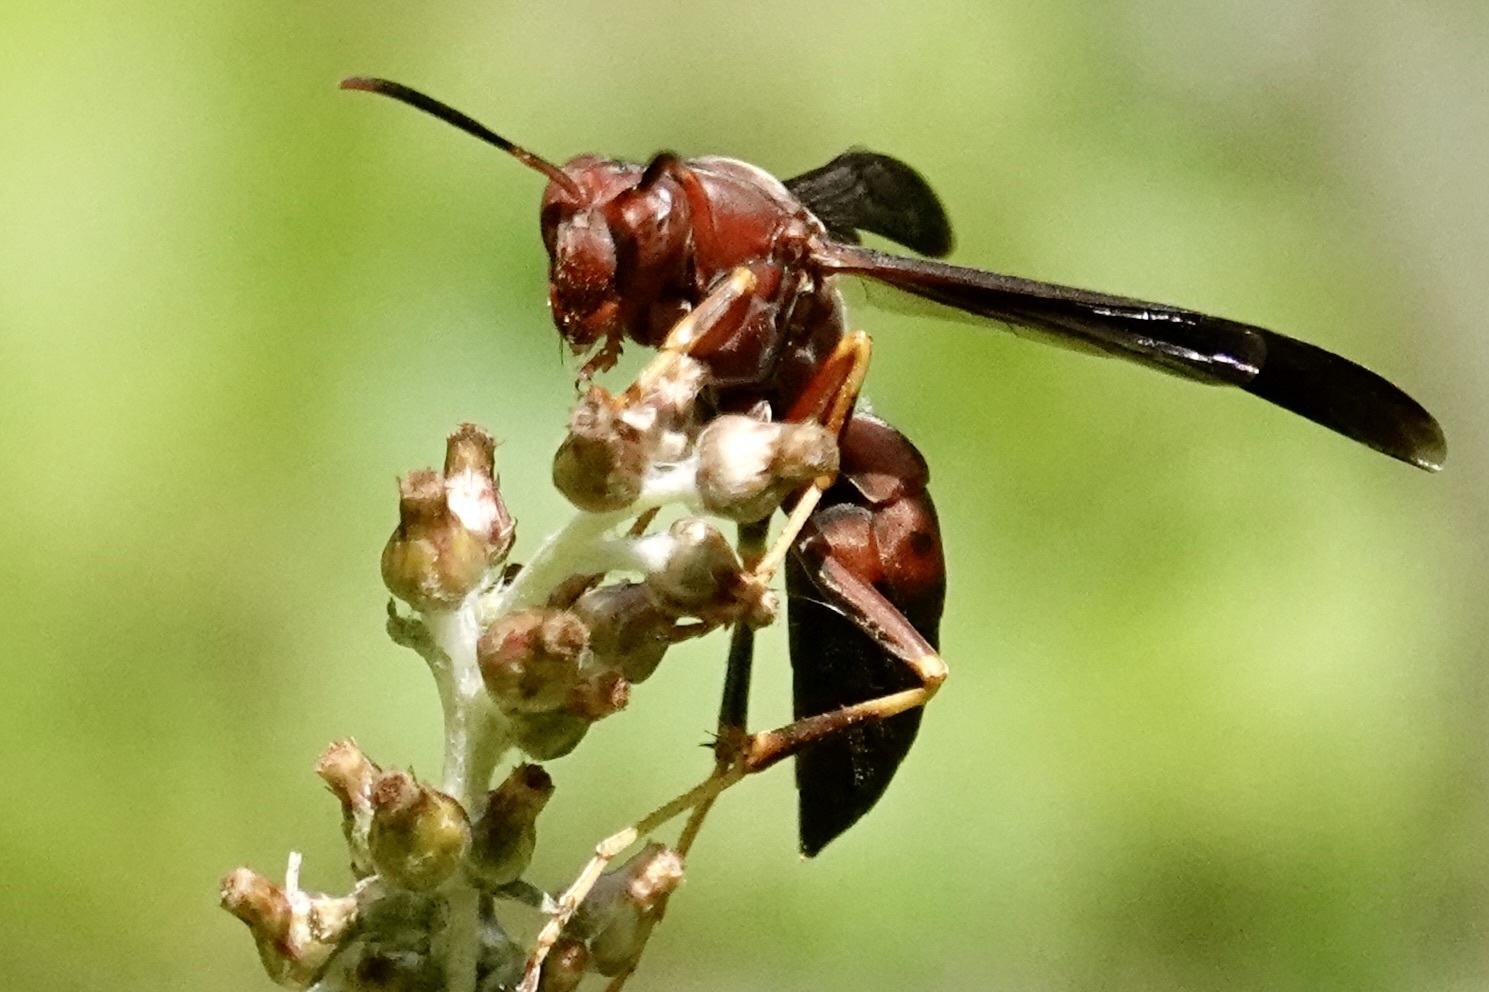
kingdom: Animalia
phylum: Arthropoda
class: Insecta
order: Hymenoptera
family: Eumenidae
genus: Polistes
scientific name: Polistes metricus
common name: Metric paper wasp
